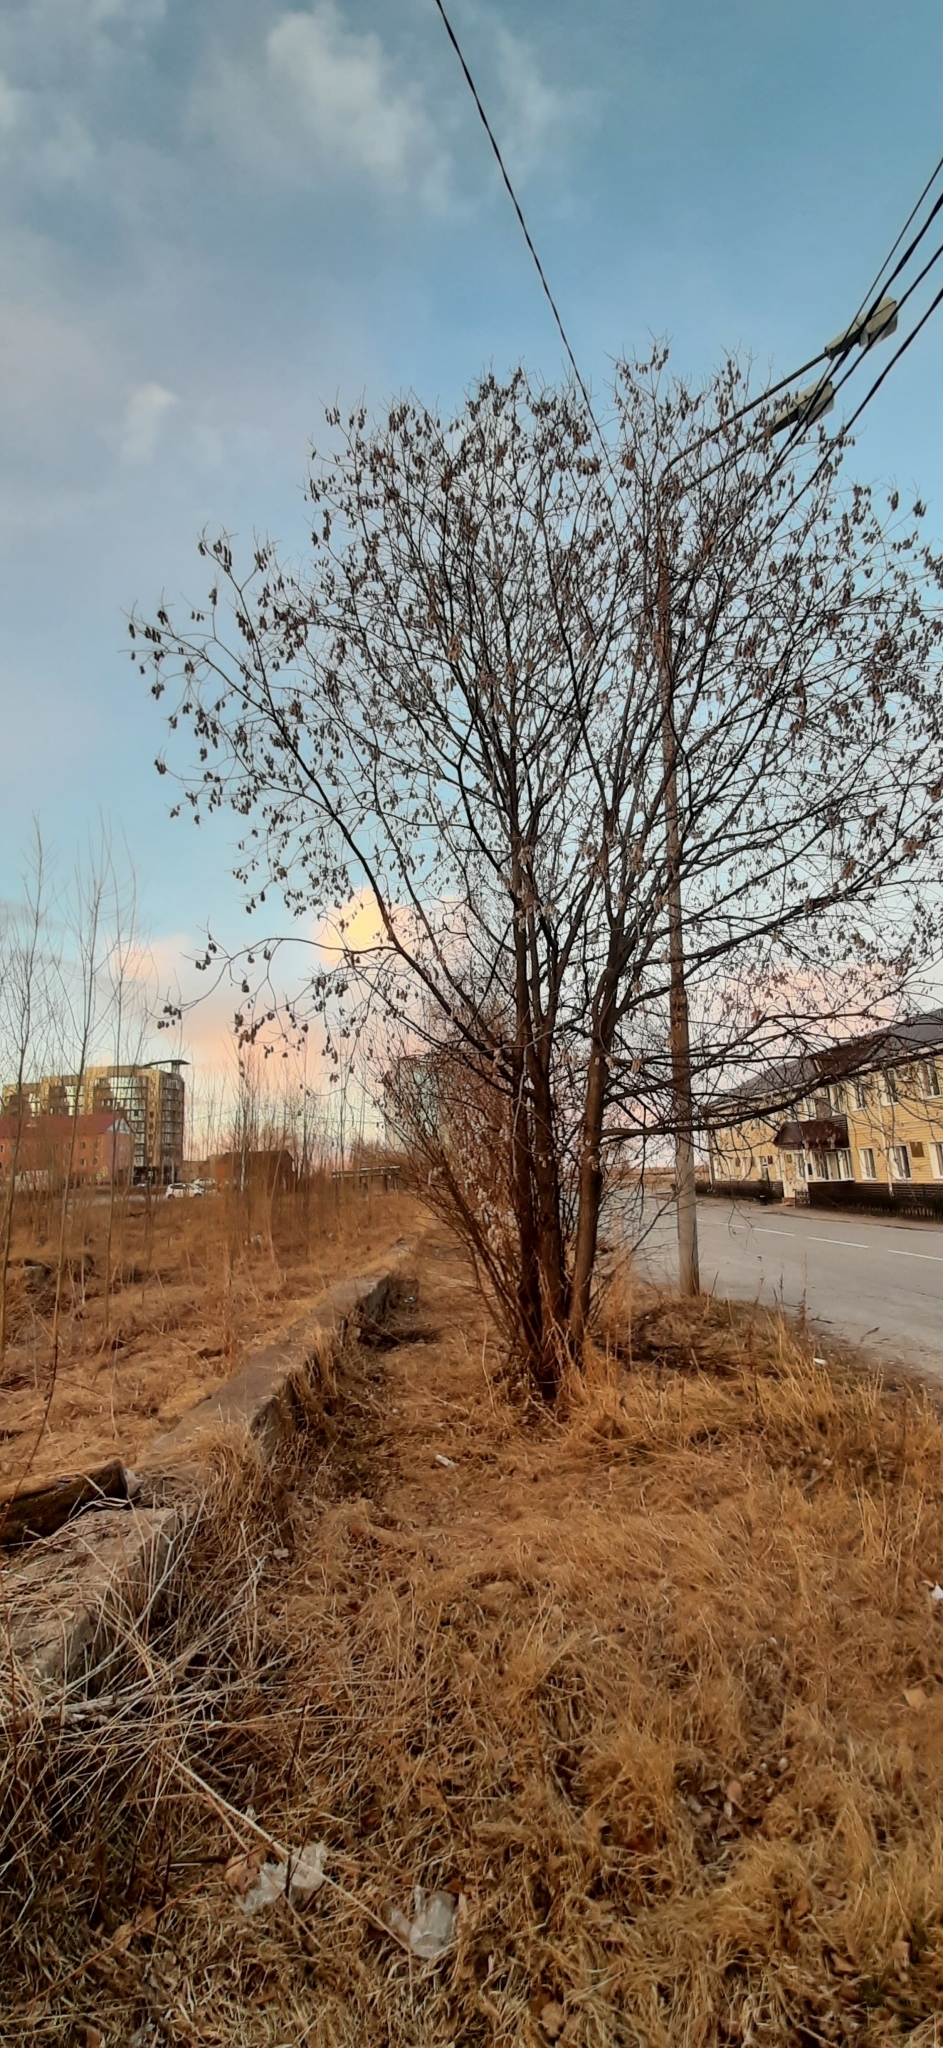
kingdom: Plantae
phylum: Tracheophyta
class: Magnoliopsida
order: Malpighiales
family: Salicaceae
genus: Salix
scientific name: Salix pentandra
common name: Bay willow
